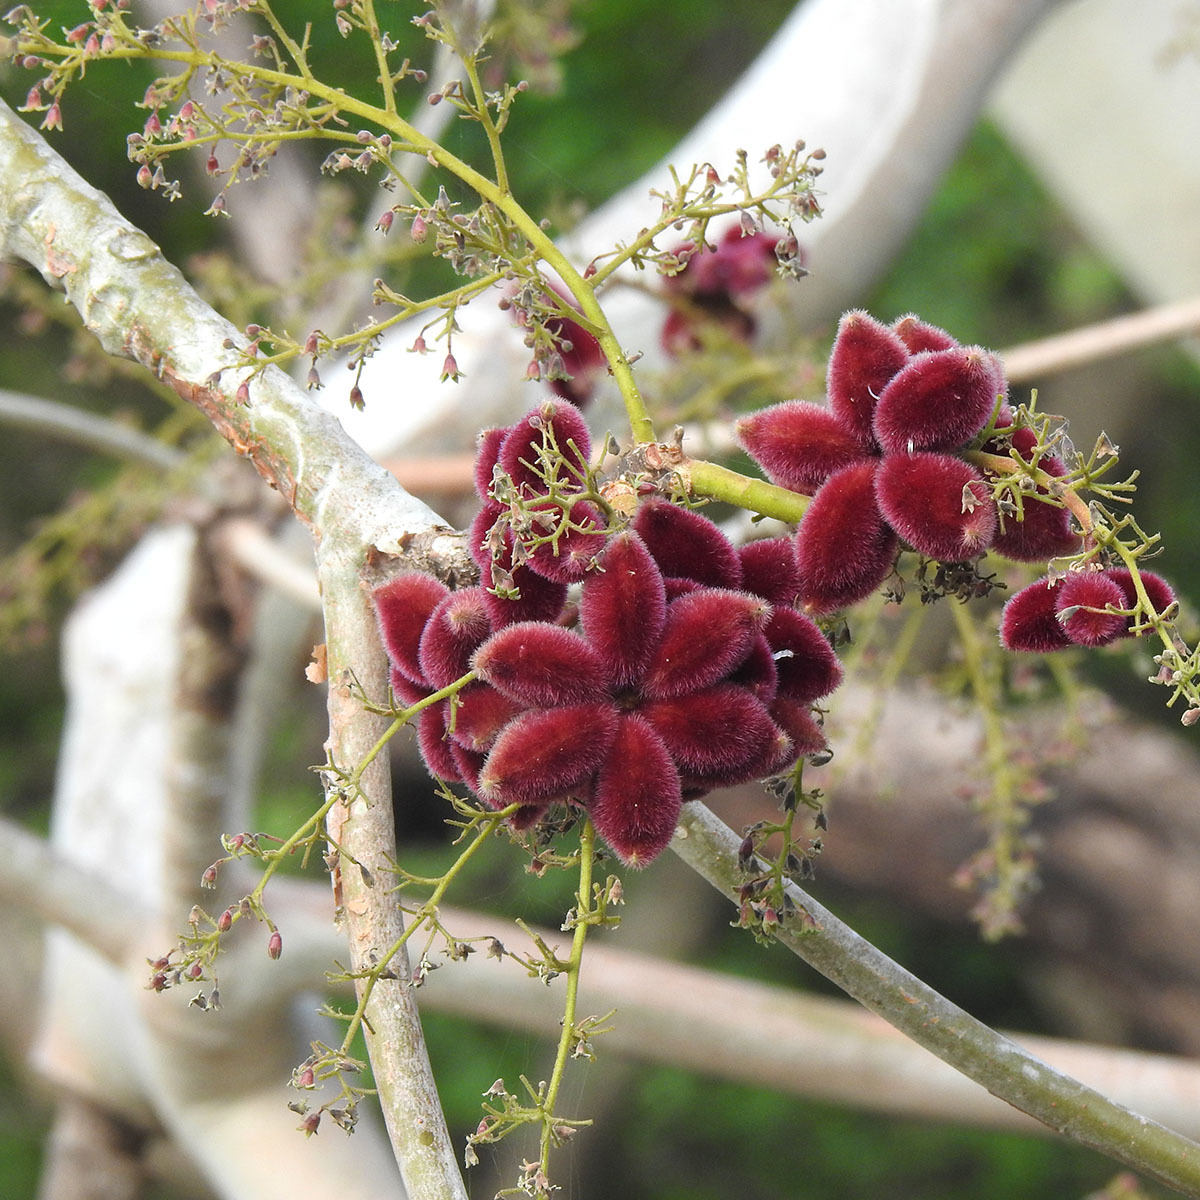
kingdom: Plantae
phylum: Tracheophyta
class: Magnoliopsida
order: Malvales
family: Malvaceae
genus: Sterculia
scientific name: Sterculia urens
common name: Indian-tragacanth
